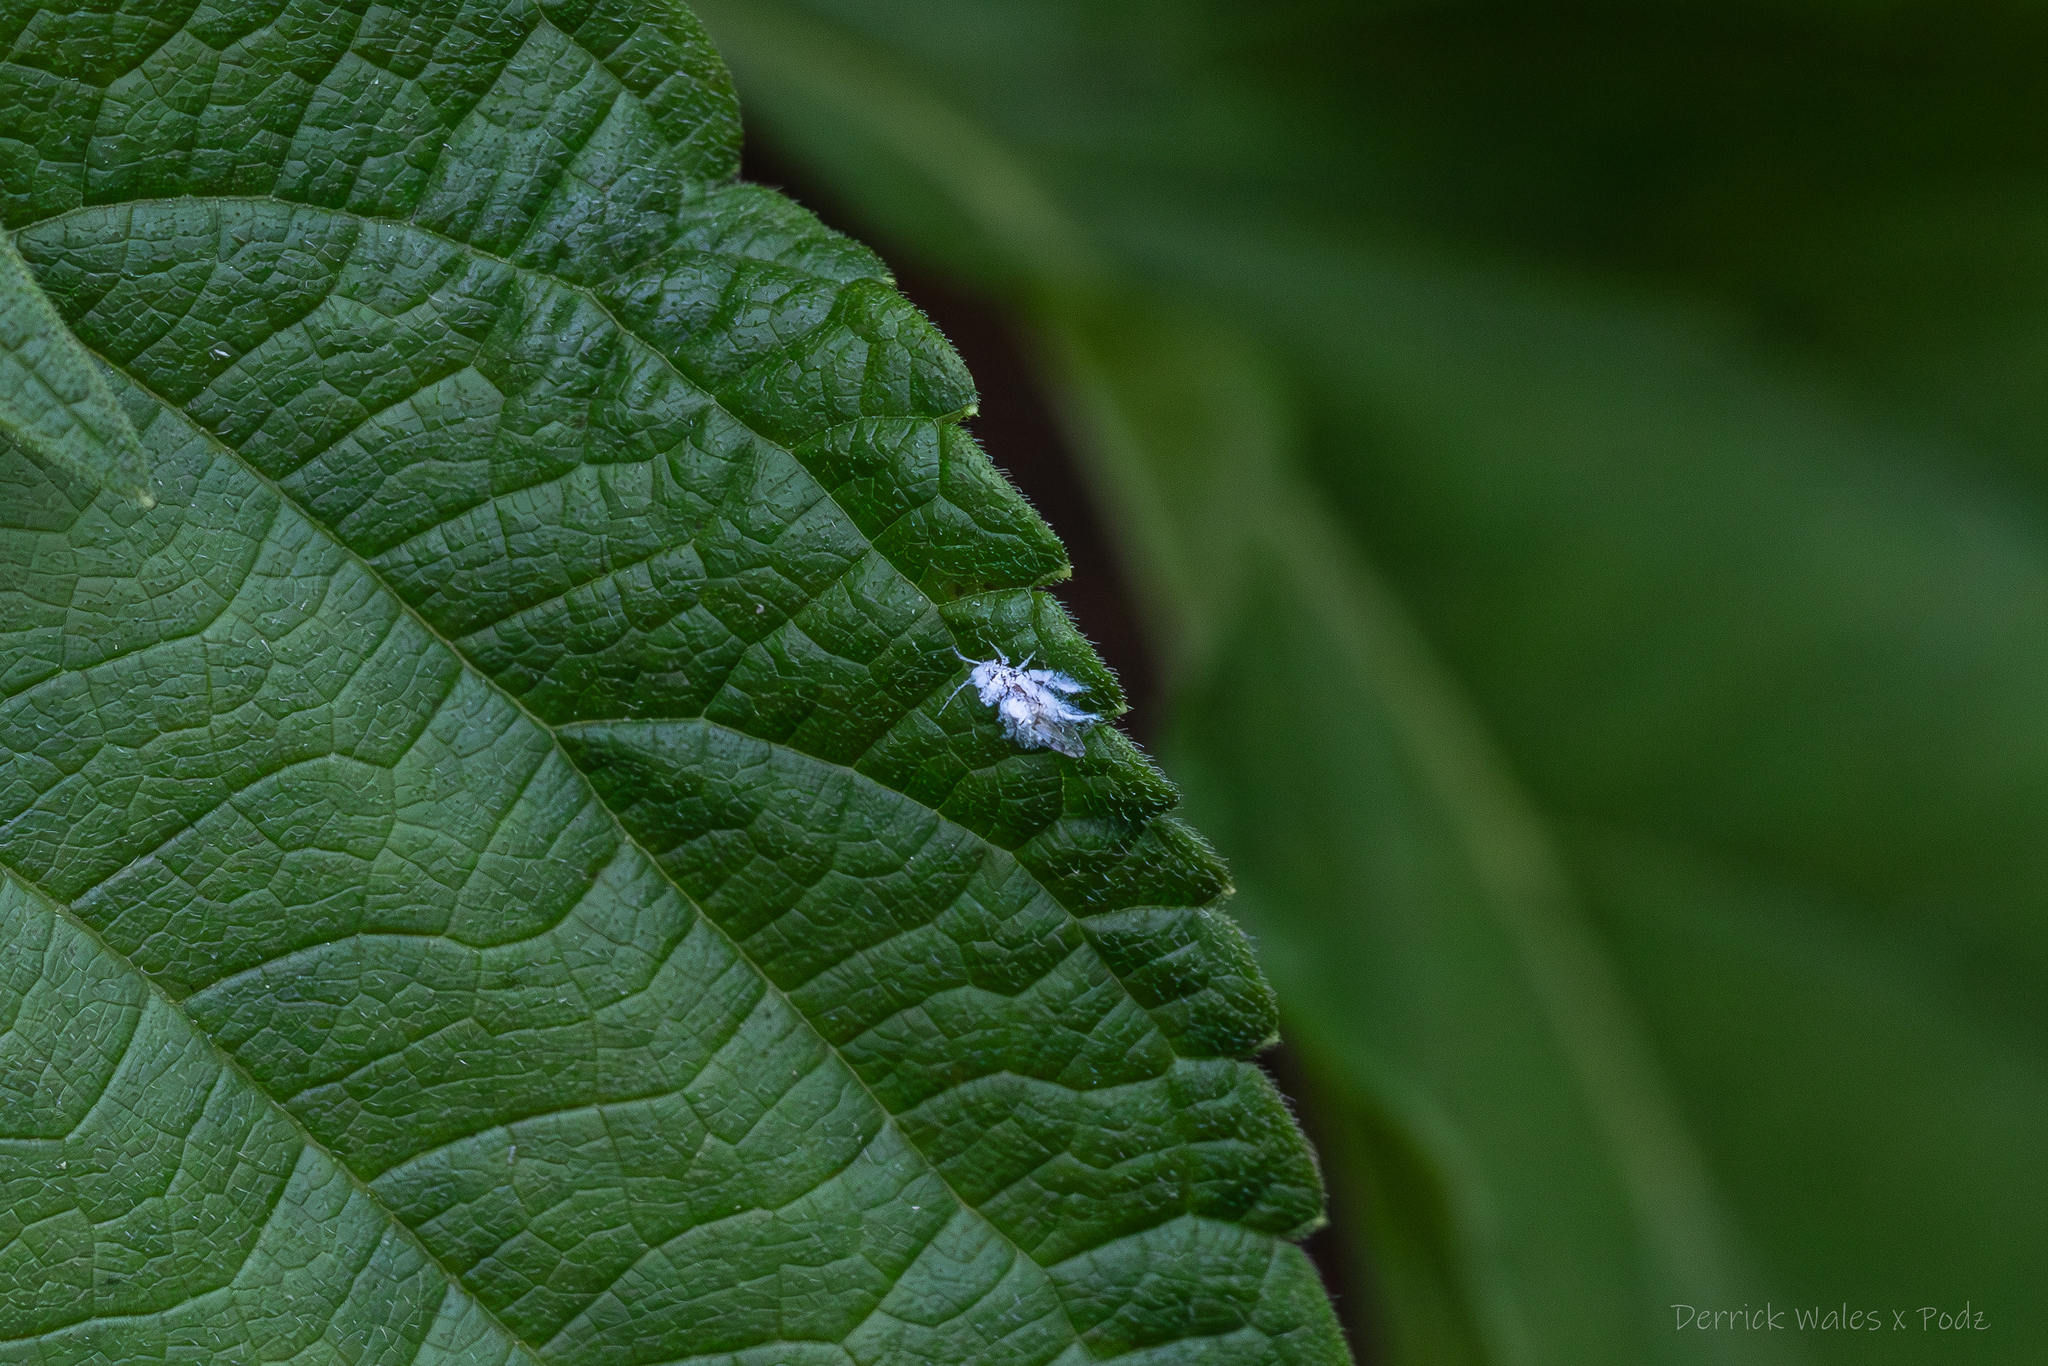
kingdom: Animalia
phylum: Arthropoda
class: Insecta
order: Hemiptera
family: Aphididae
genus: Shivaphis
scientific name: Shivaphis celti
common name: Asian wooly hackberry aphid
